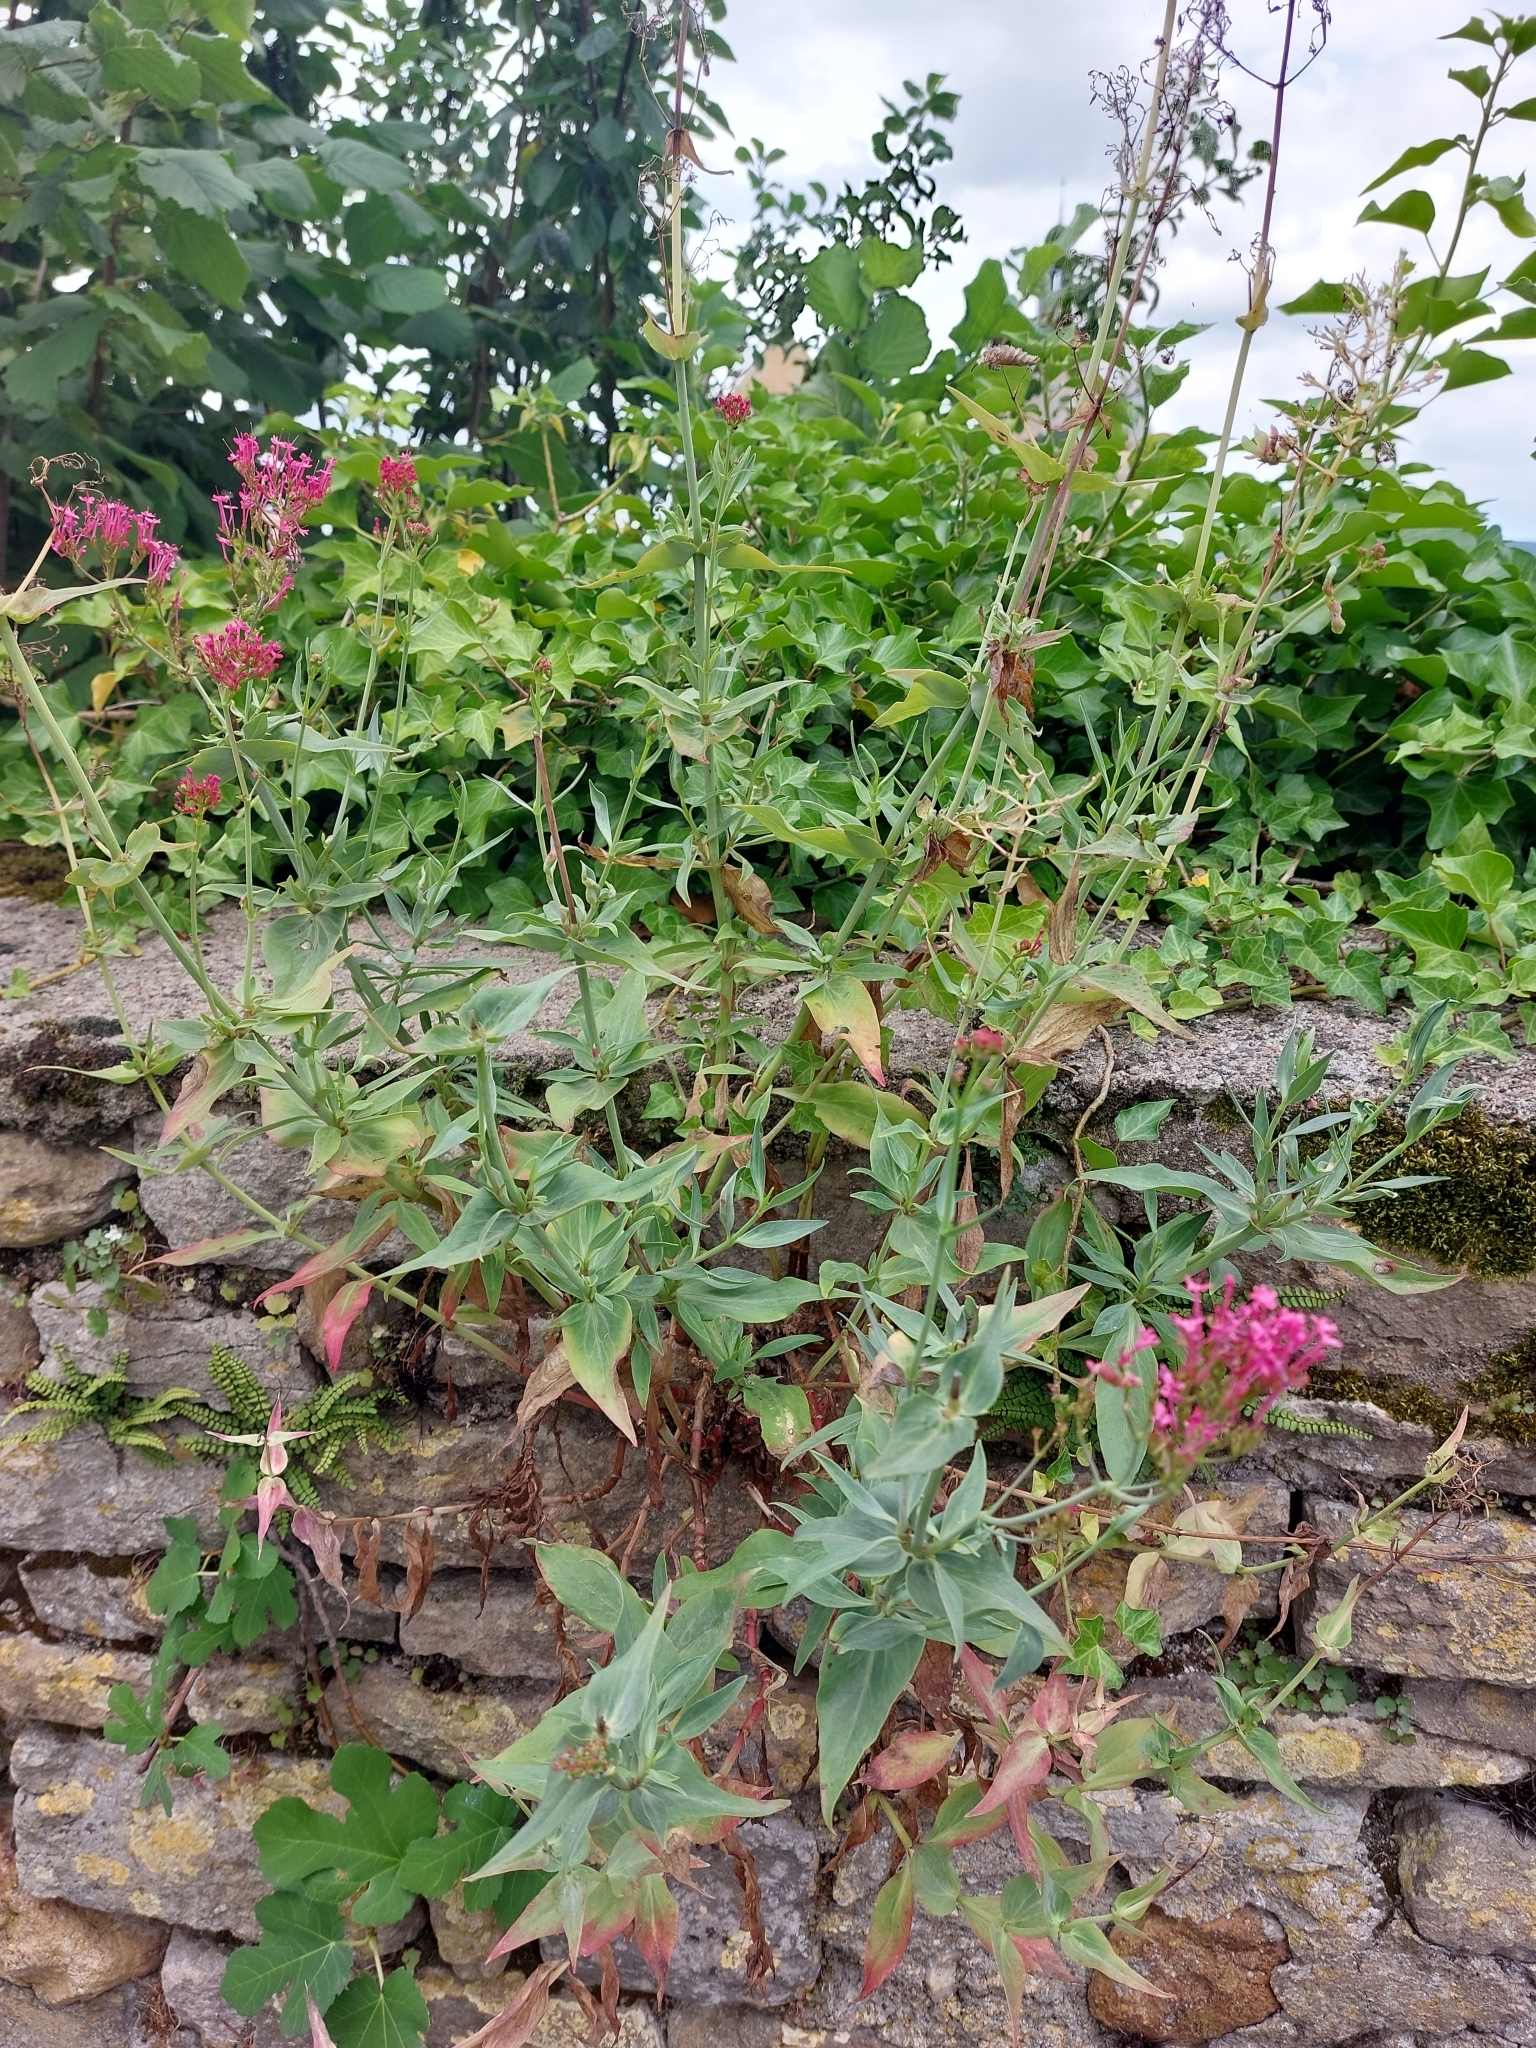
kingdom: Plantae
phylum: Tracheophyta
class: Magnoliopsida
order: Dipsacales
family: Caprifoliaceae
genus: Centranthus
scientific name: Centranthus ruber
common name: Red valerian
